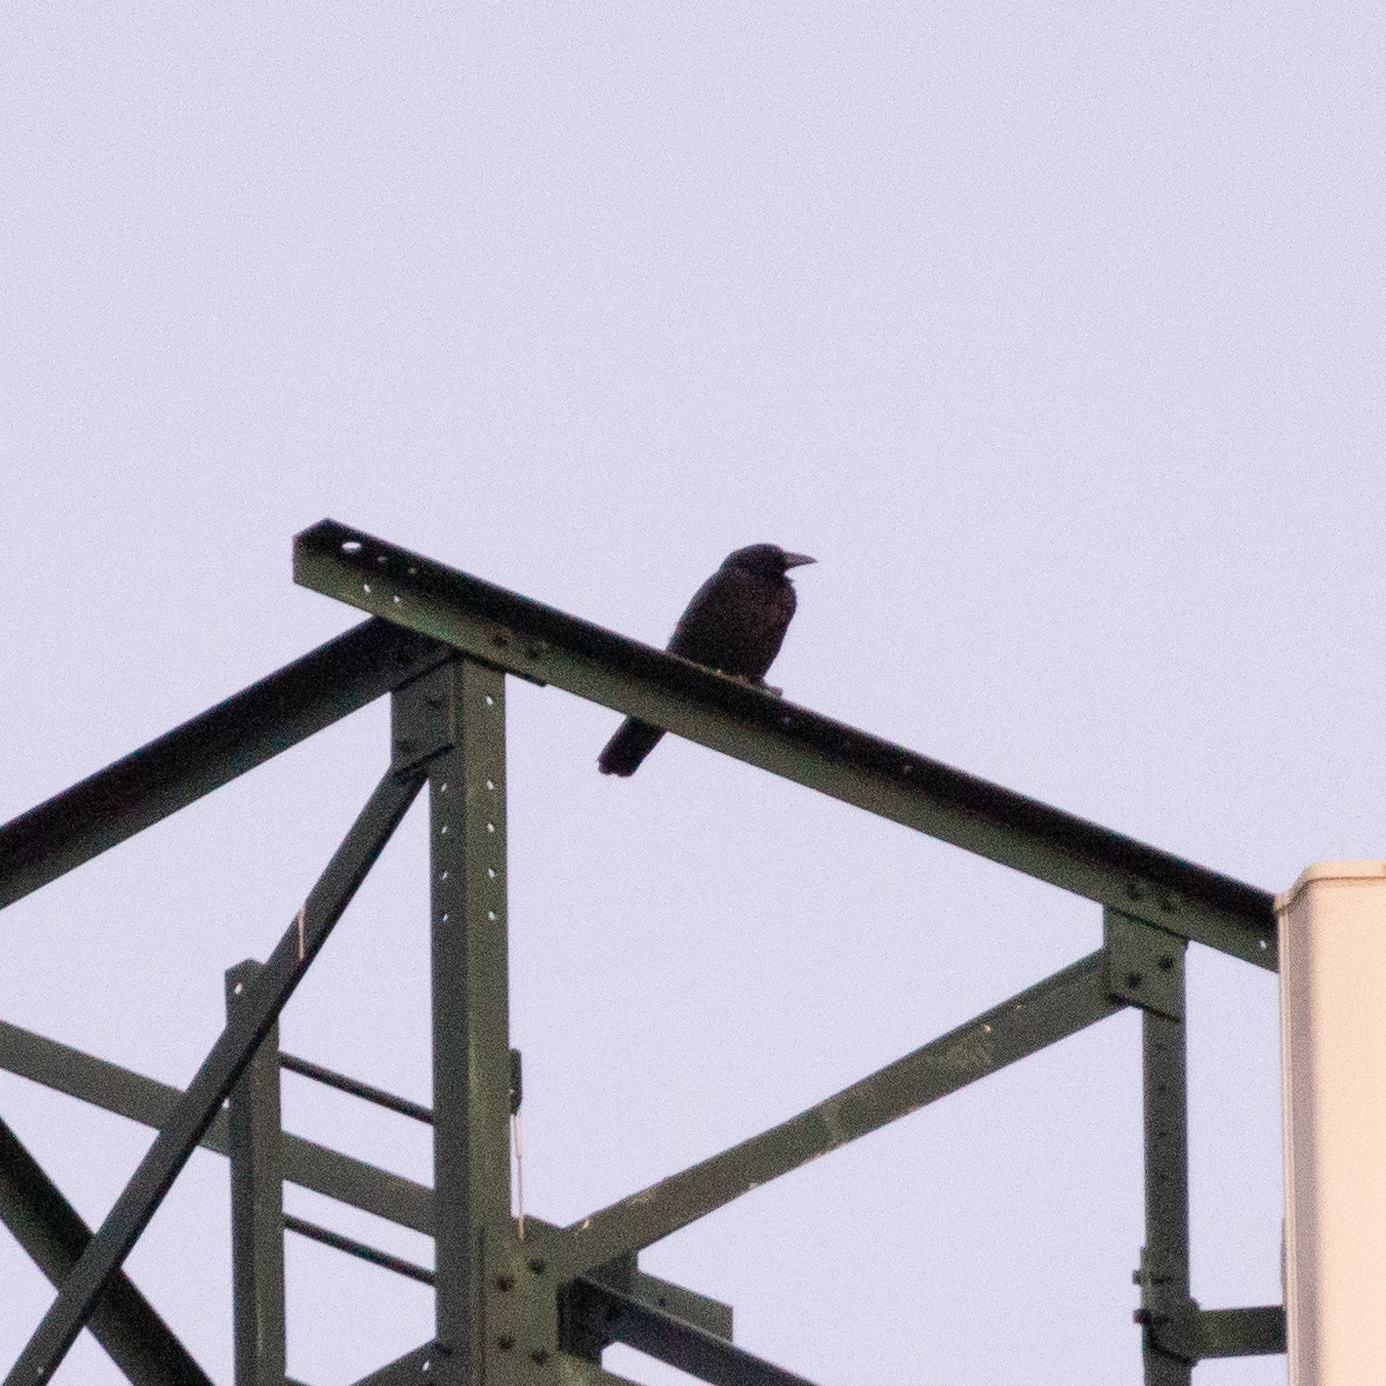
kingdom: Animalia
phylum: Chordata
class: Aves
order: Passeriformes
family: Corvidae
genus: Corvus
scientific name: Corvus corone
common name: Carrion crow
